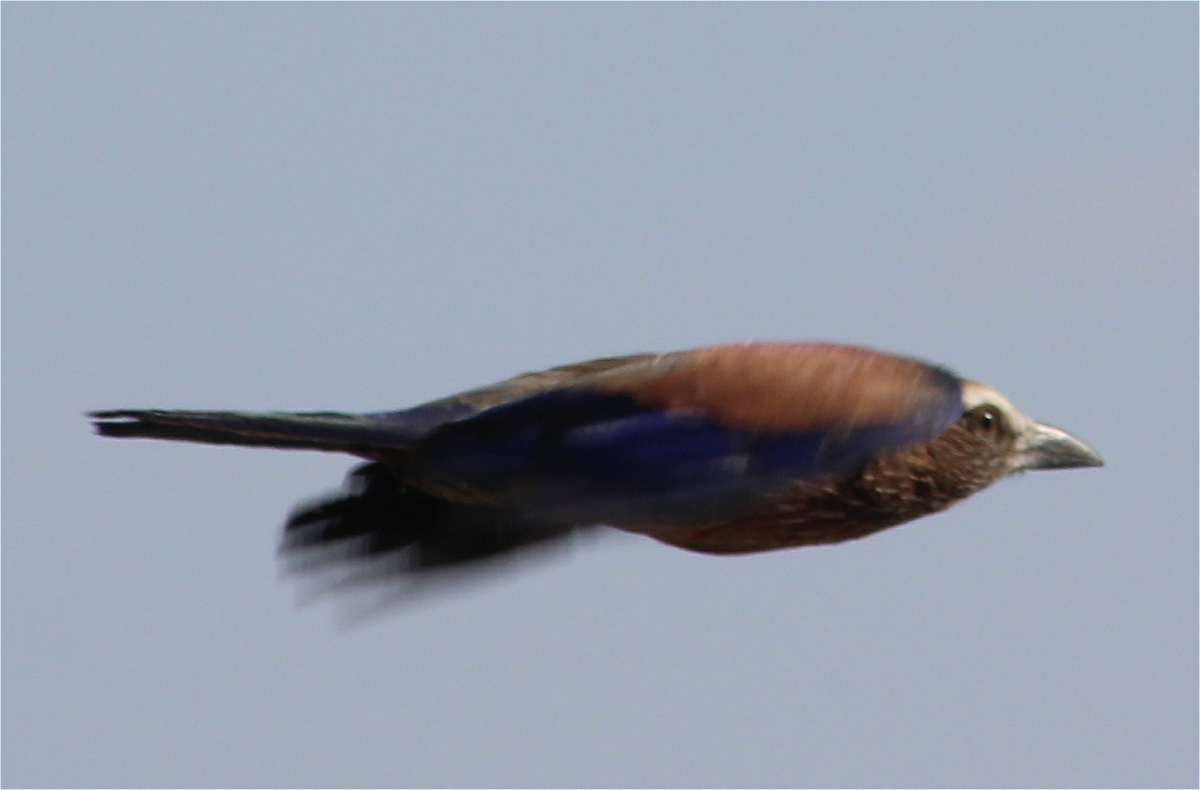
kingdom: Animalia
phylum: Chordata
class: Aves
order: Coraciiformes
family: Coraciidae
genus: Coracias
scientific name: Coracias naevius
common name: Purple roller
